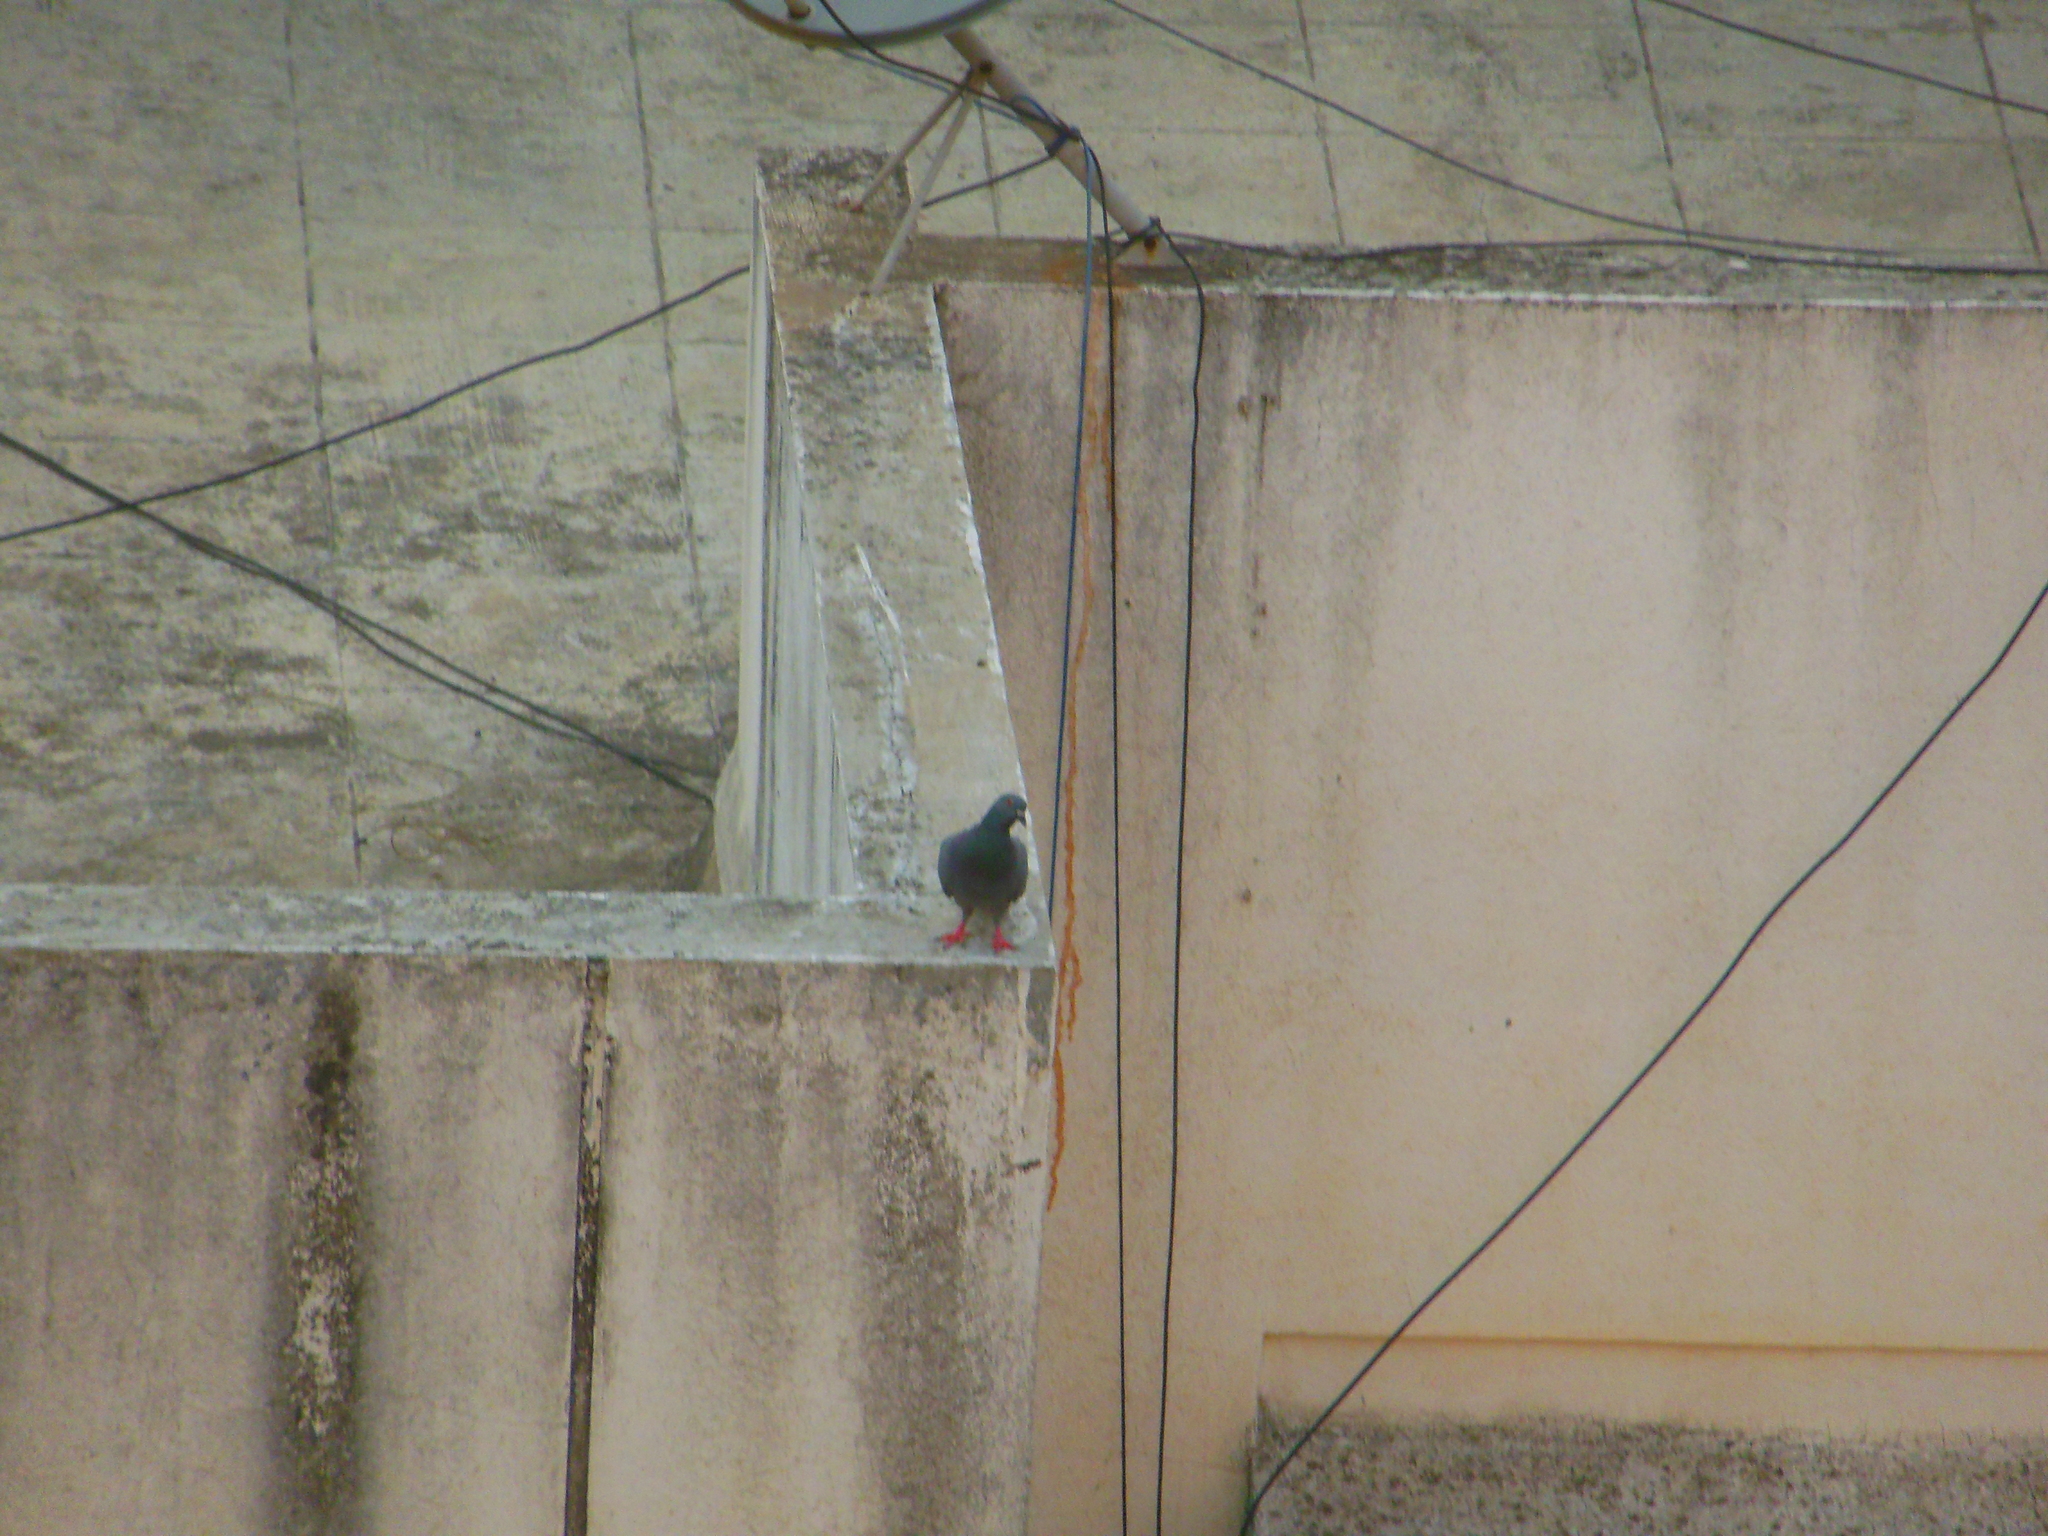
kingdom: Animalia
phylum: Chordata
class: Aves
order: Columbiformes
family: Columbidae
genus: Columba
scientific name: Columba livia
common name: Rock pigeon
